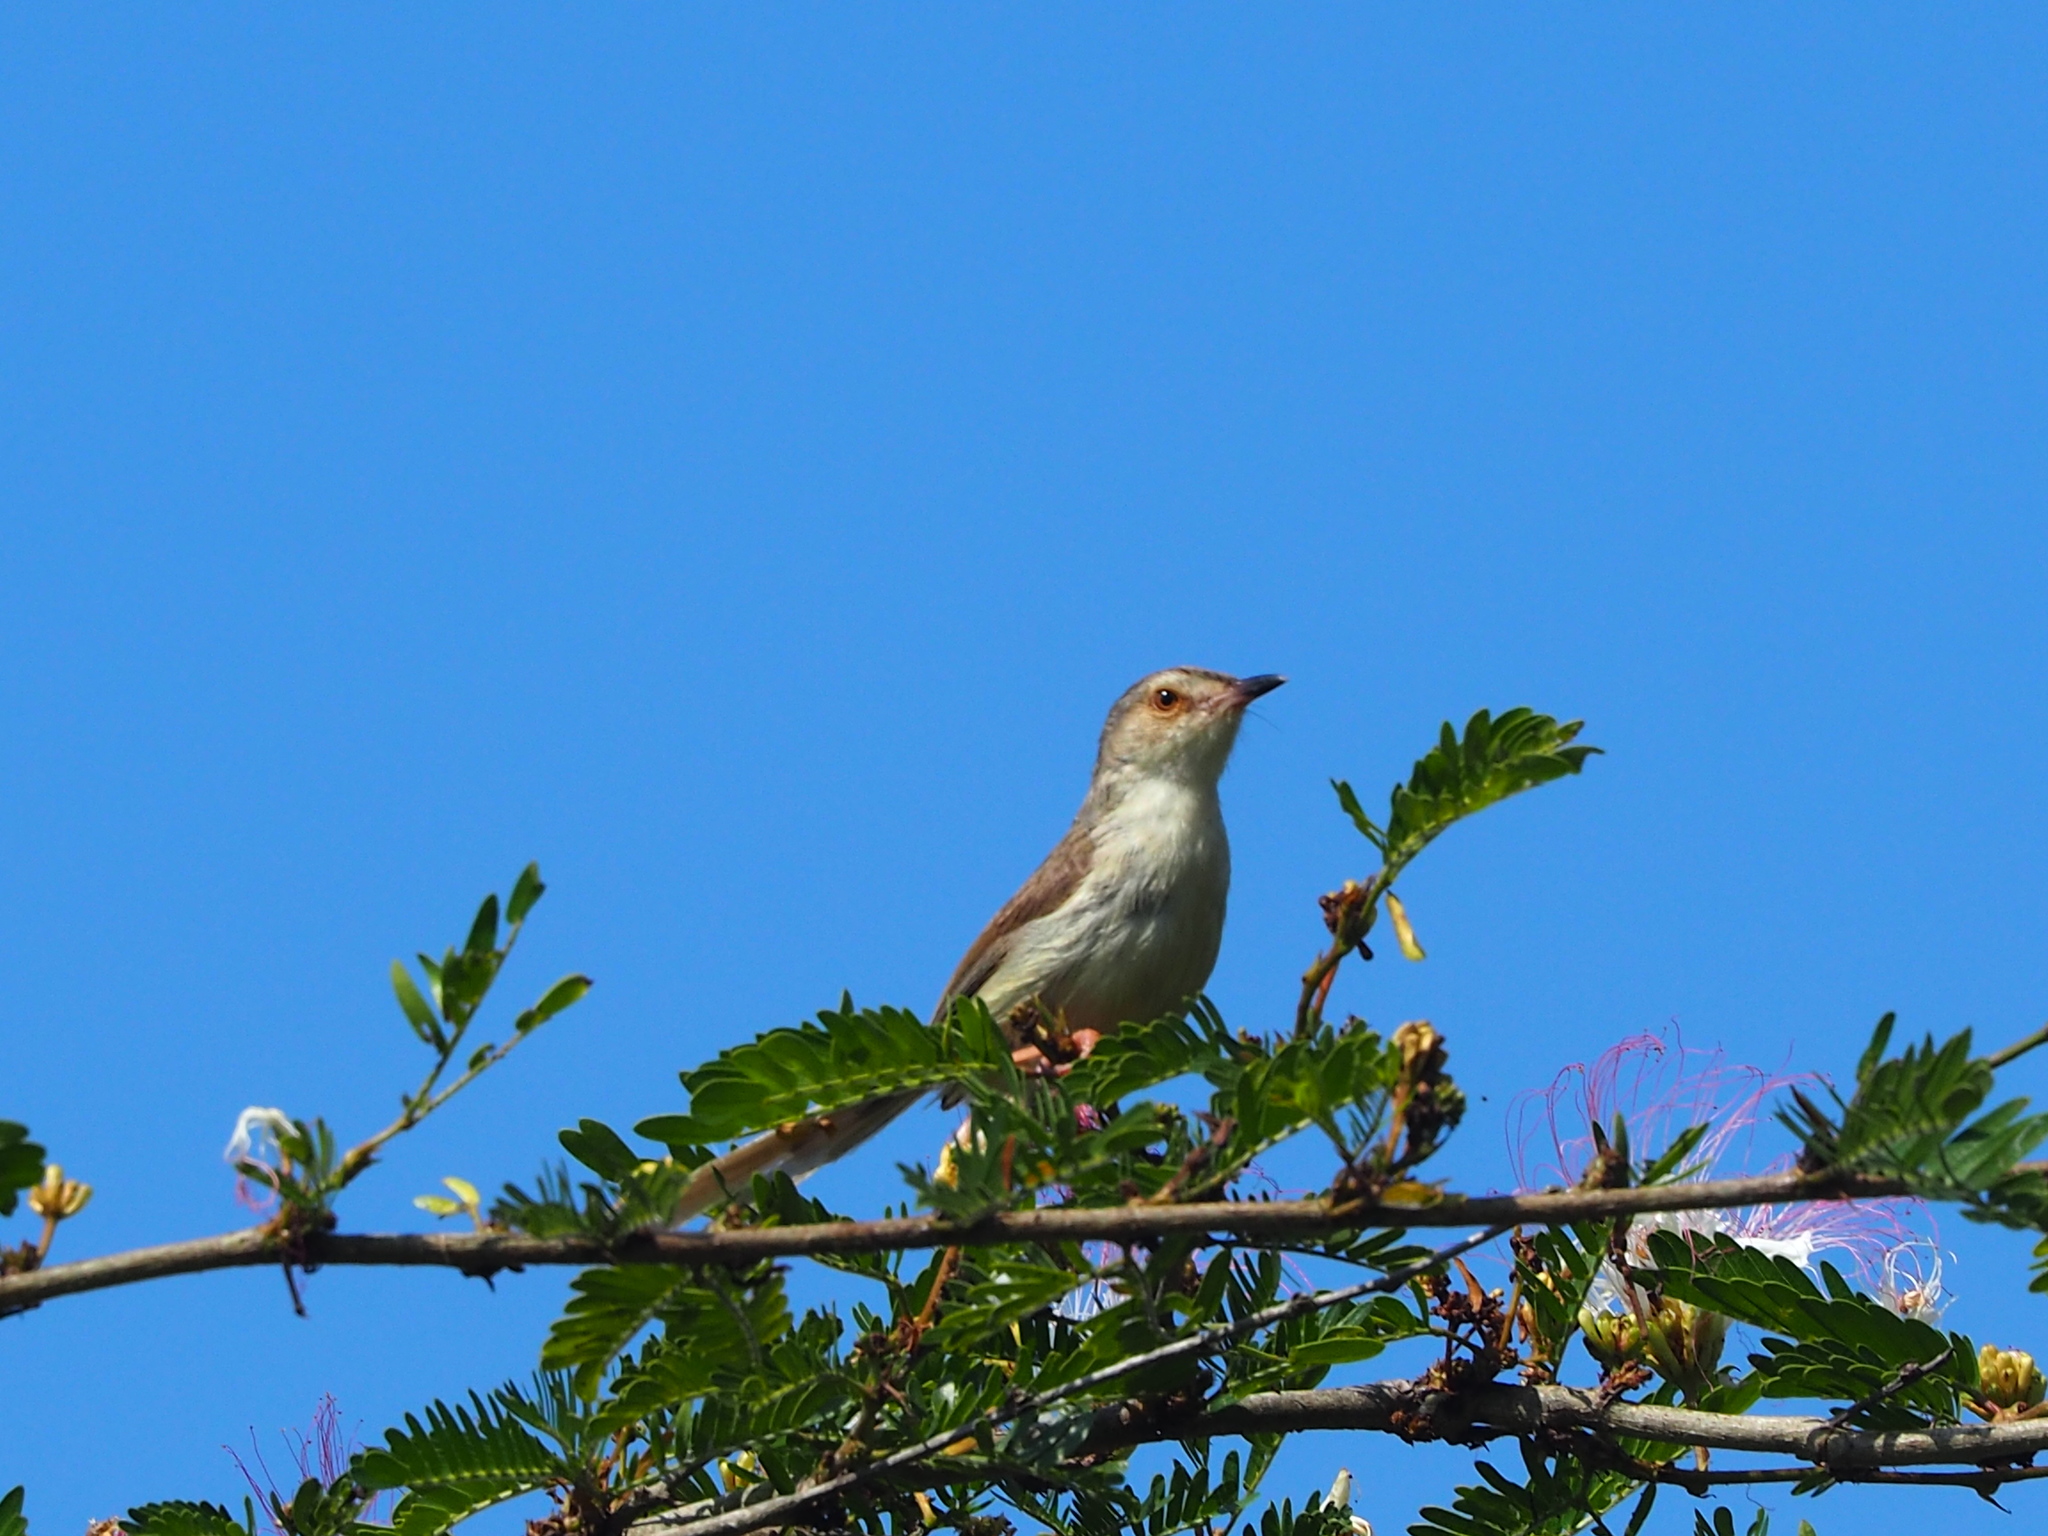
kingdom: Animalia
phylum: Chordata
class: Aves
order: Passeriformes
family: Cisticolidae
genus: Prinia
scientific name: Prinia inornata
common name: Plain prinia
